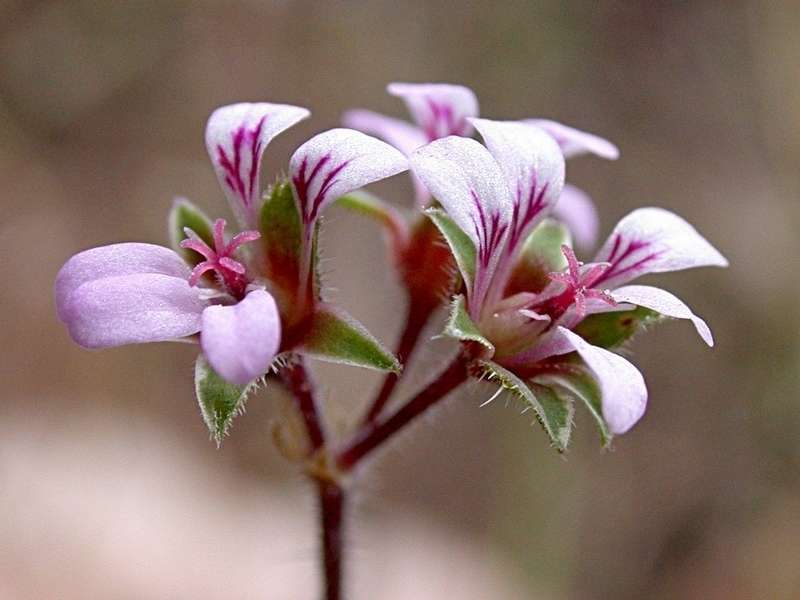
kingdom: Plantae
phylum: Tracheophyta
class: Magnoliopsida
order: Geraniales
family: Geraniaceae
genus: Pelargonium
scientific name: Pelargonium australe
